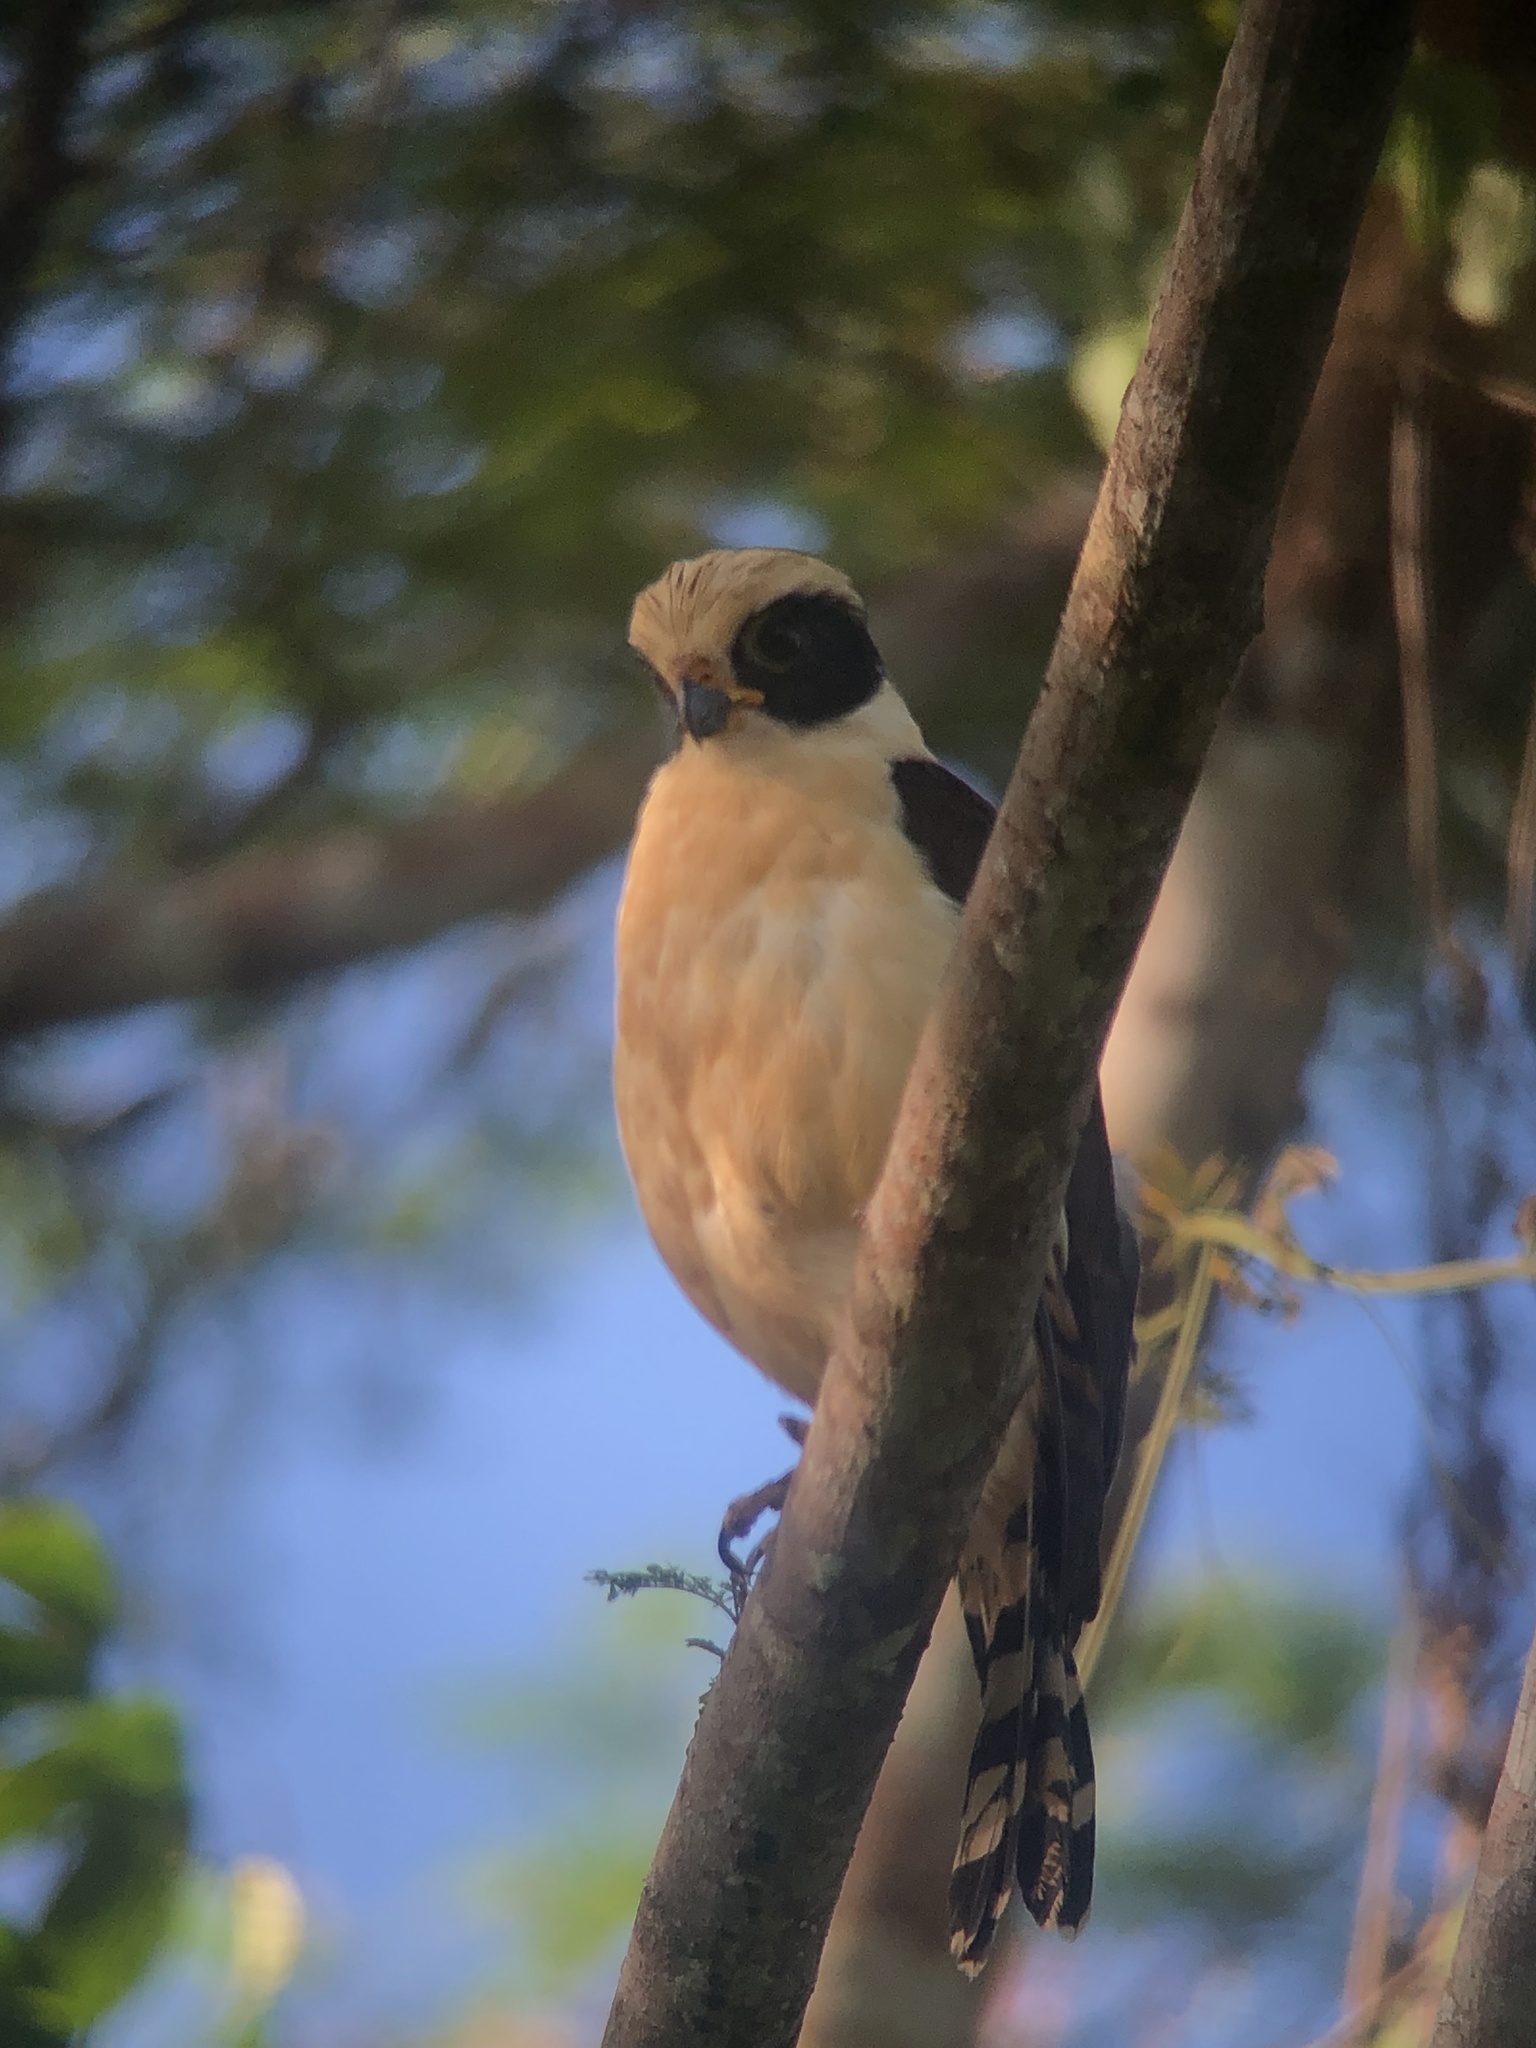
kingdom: Animalia
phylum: Chordata
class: Aves
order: Falconiformes
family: Falconidae
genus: Herpetotheres
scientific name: Herpetotheres cachinnans
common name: Laughing falcon
